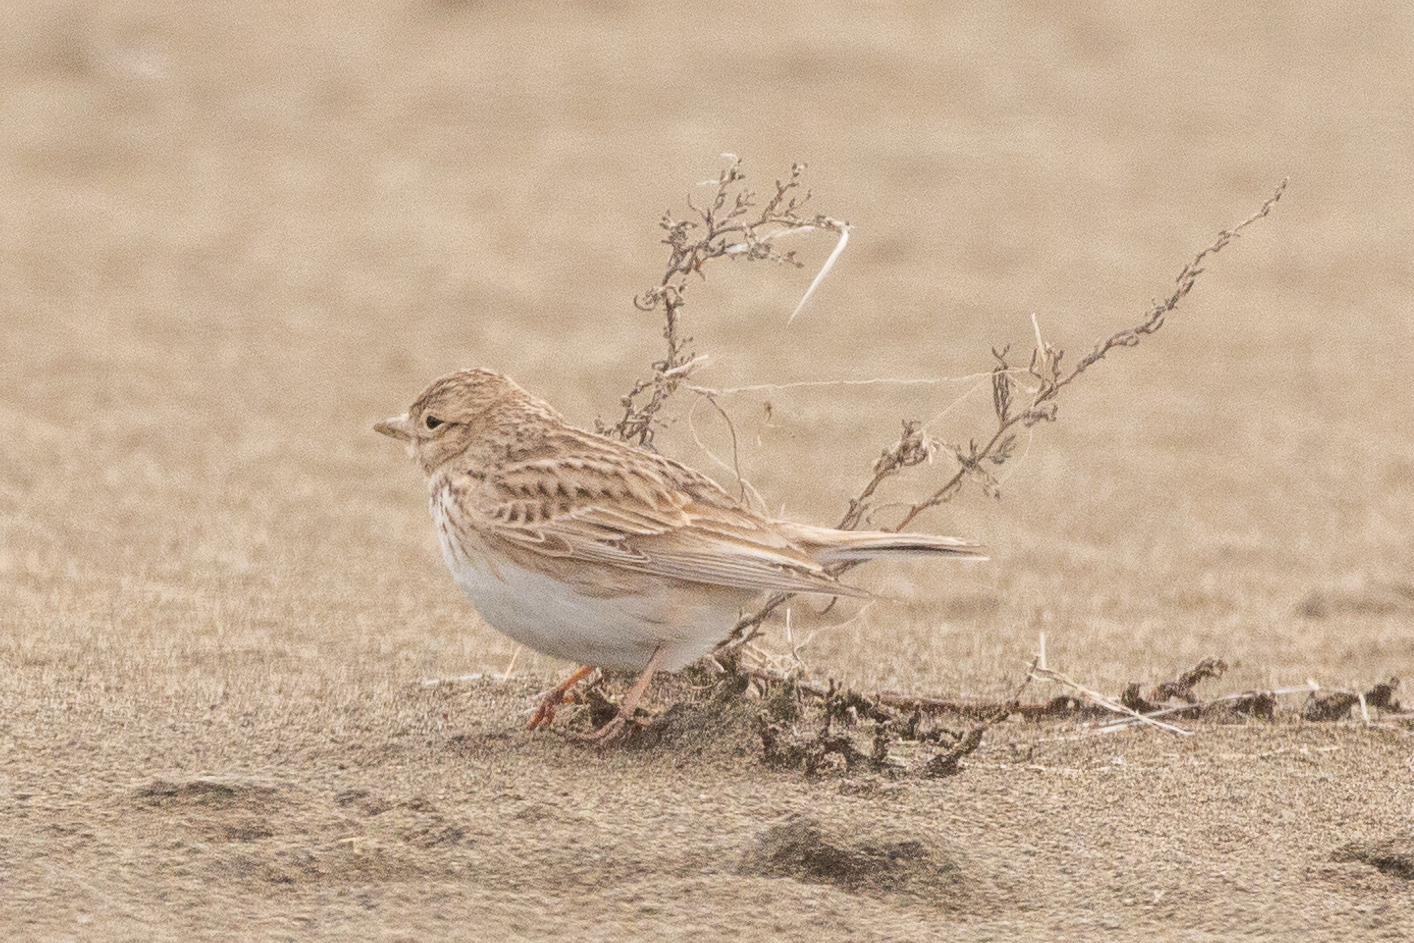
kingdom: Animalia
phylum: Chordata
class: Aves
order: Passeriformes
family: Alaudidae
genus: Calandrella
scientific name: Calandrella rufescens
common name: Lesser short-toed lark
